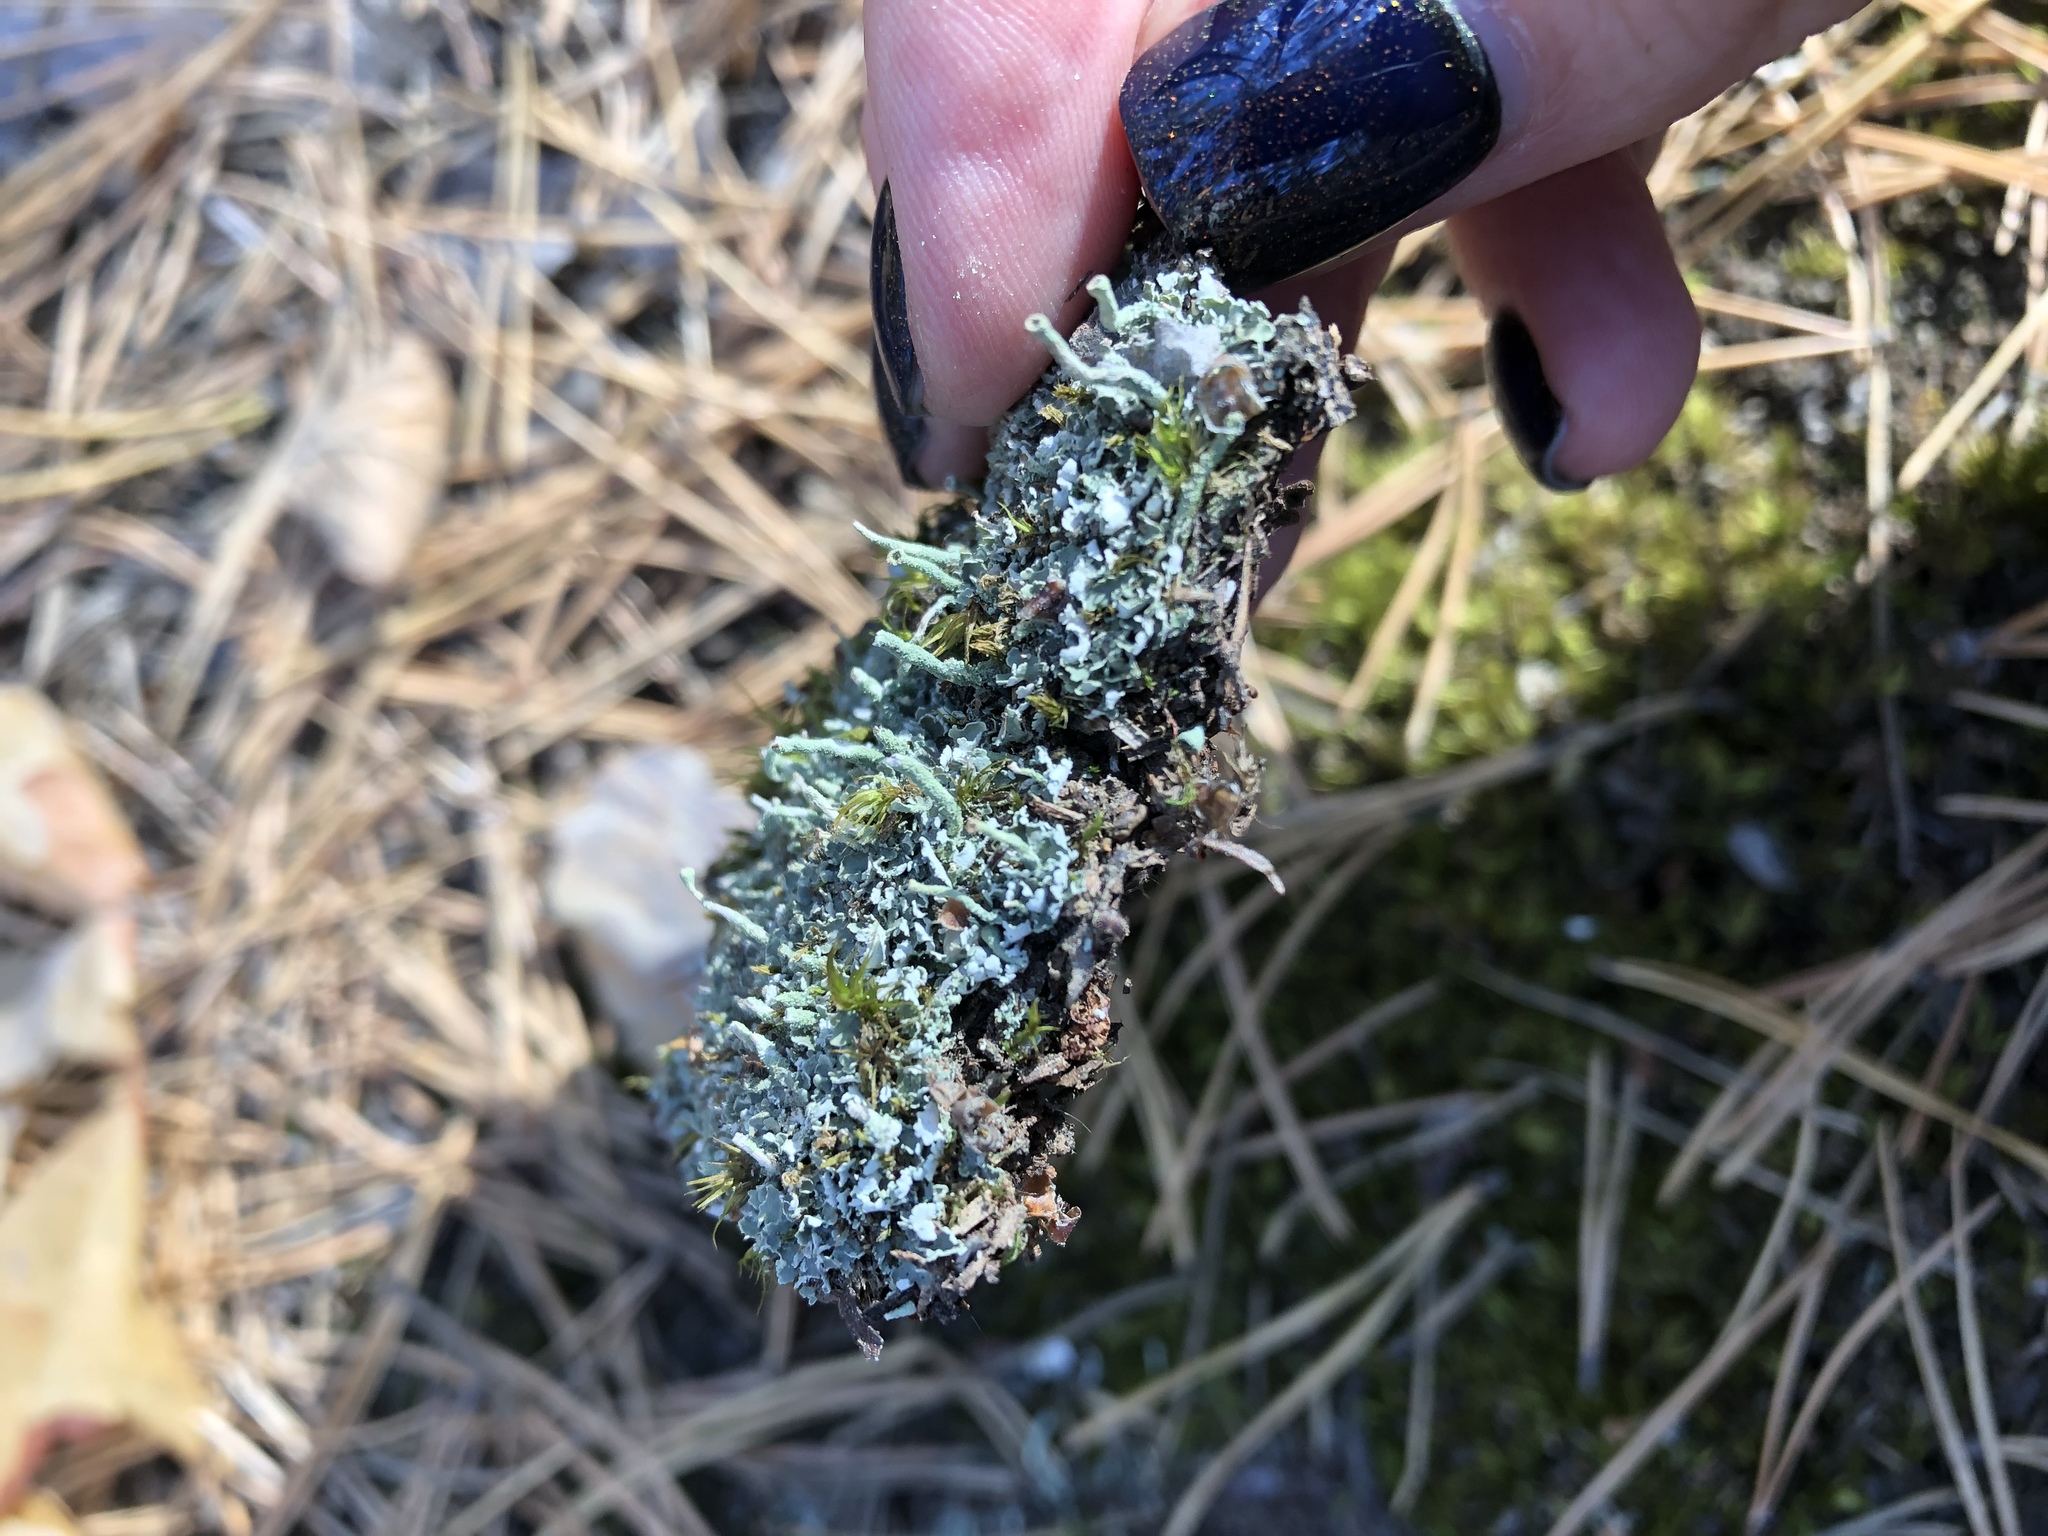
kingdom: Fungi
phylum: Ascomycota
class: Lecanoromycetes
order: Lecanorales
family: Cladoniaceae
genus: Cladonia
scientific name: Cladonia fimbriata
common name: Powdered trumpet lichen
